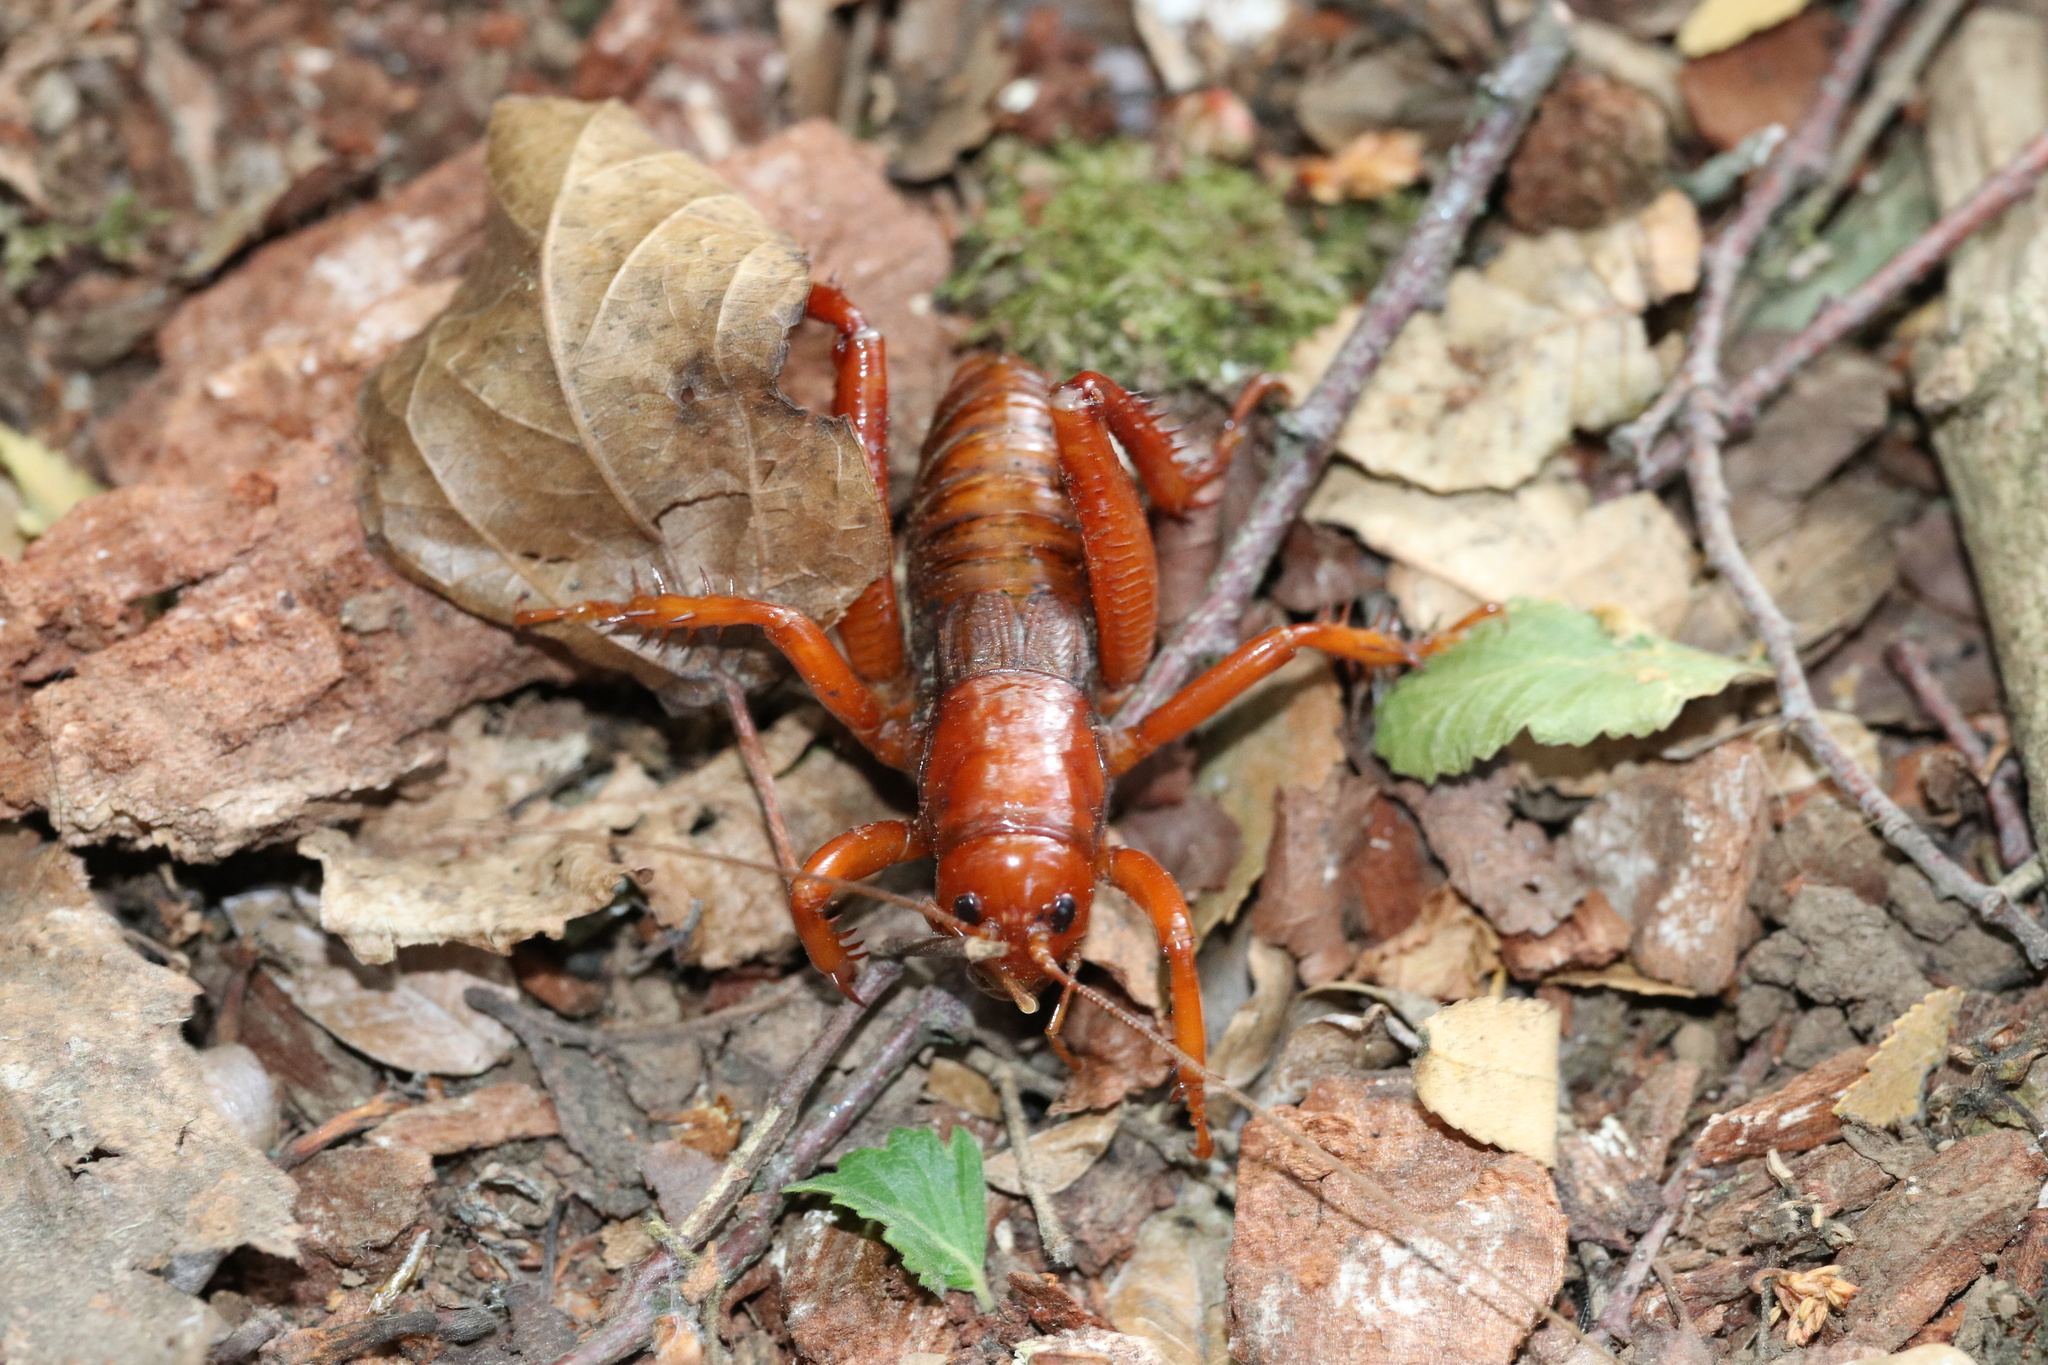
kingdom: Animalia
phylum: Arthropoda
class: Insecta
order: Orthoptera
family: Anostostomatidae
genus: Cratomelus
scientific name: Cratomelus armatus
